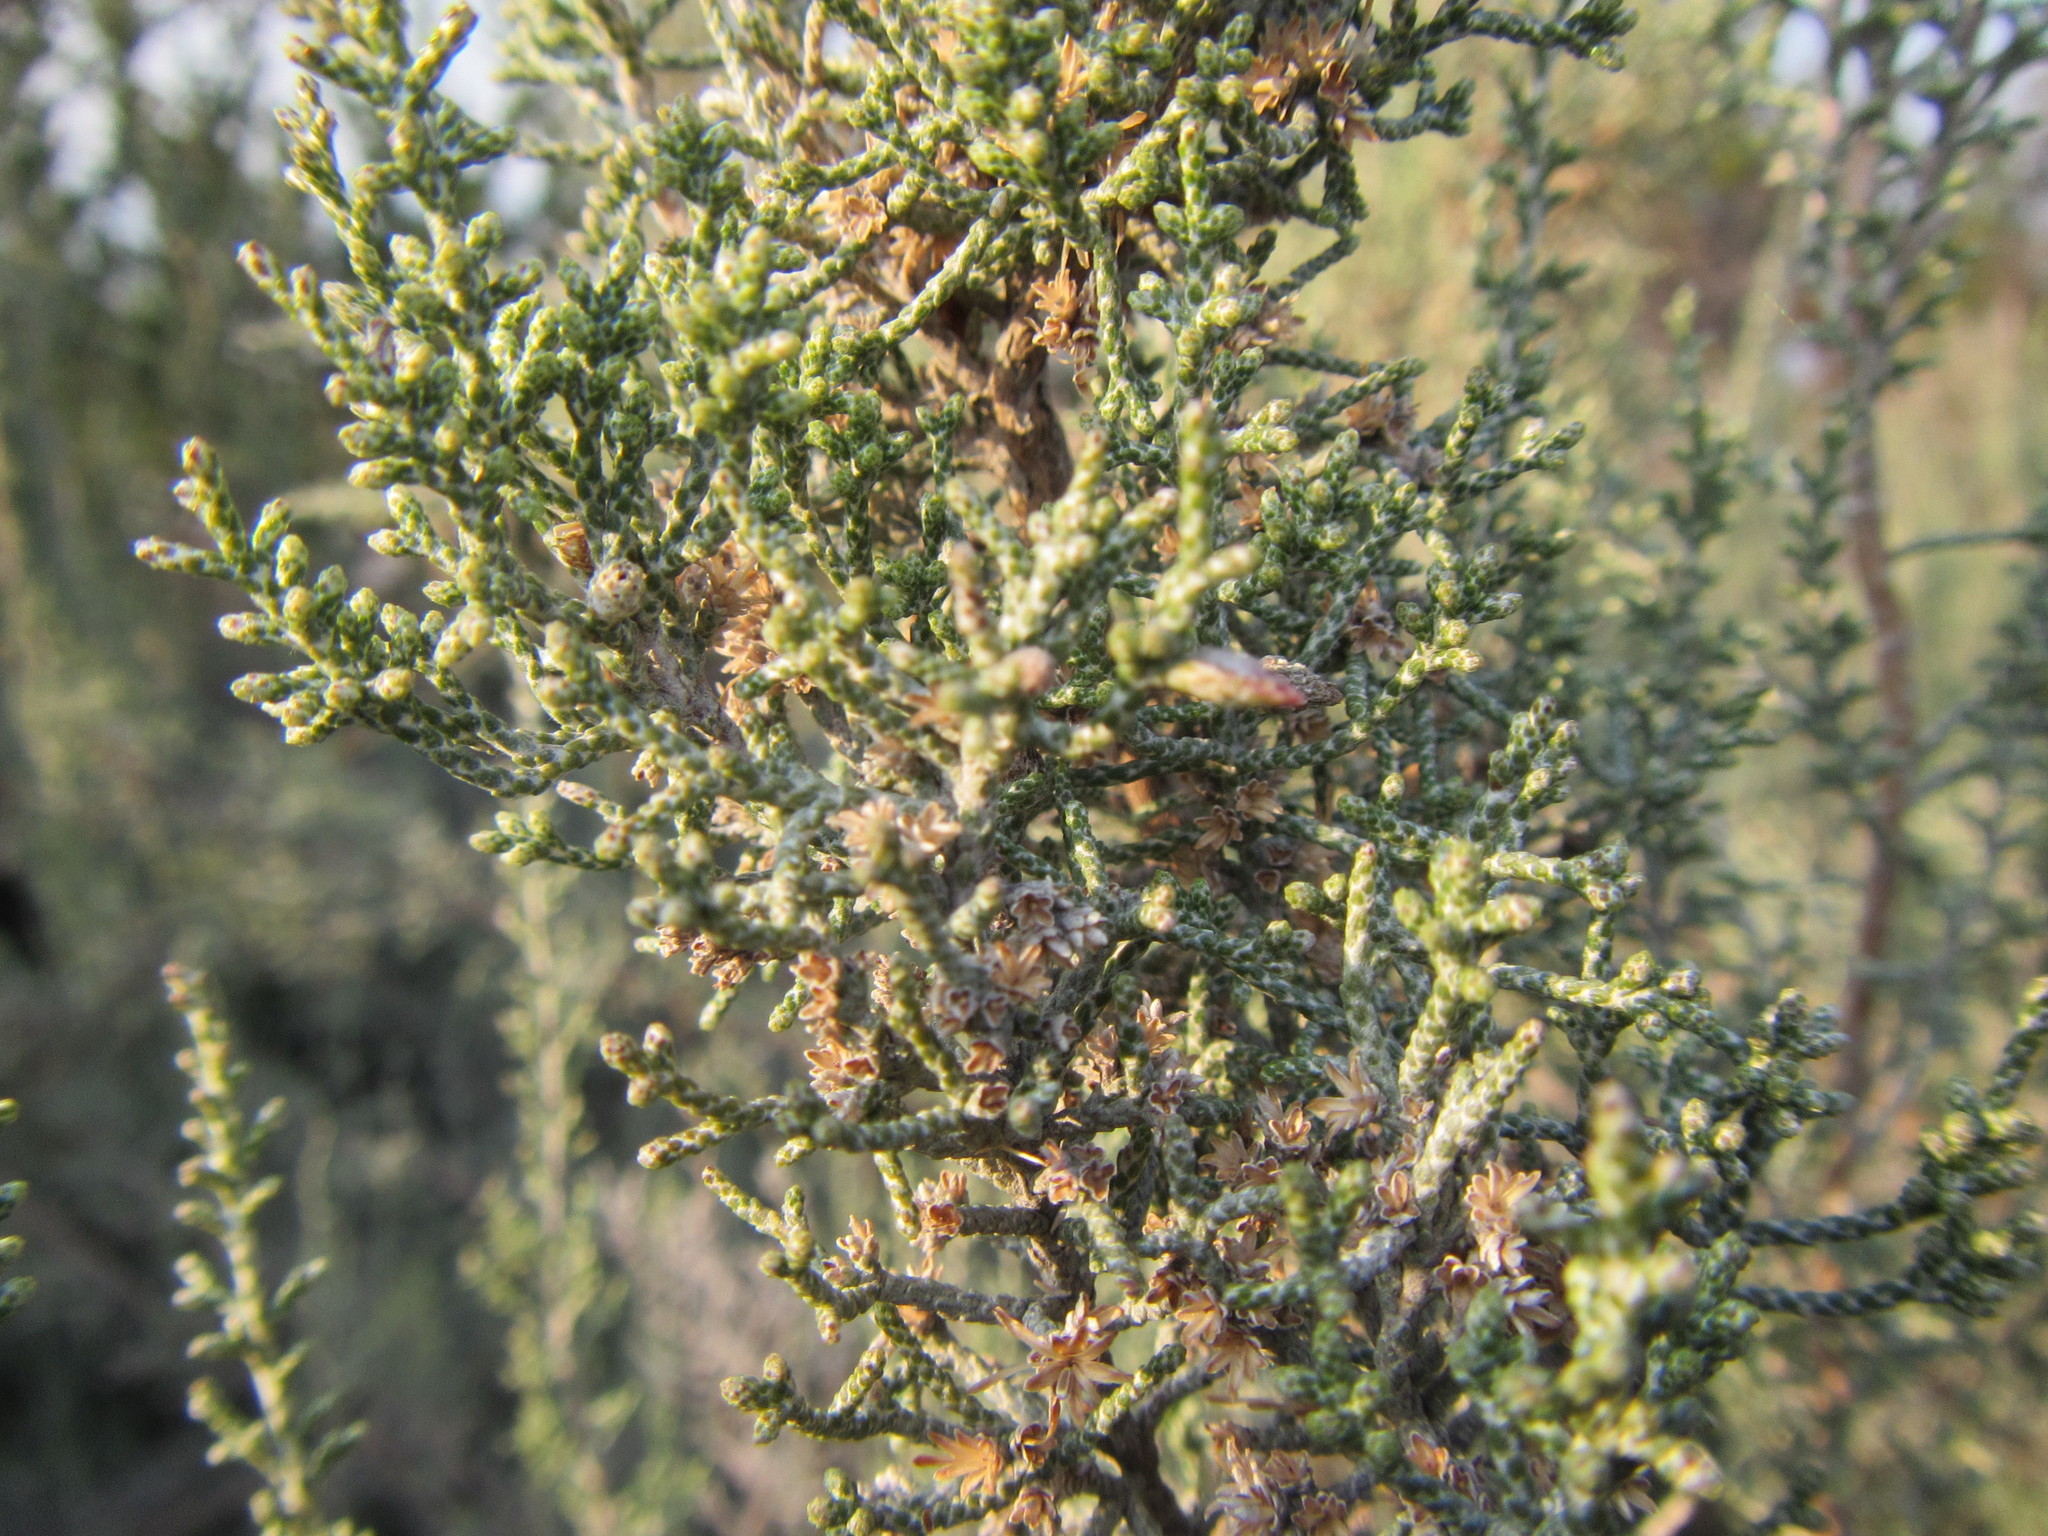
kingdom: Plantae
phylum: Tracheophyta
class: Magnoliopsida
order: Asterales
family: Asteraceae
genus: Dicerothamnus
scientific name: Dicerothamnus rhinocerotis
